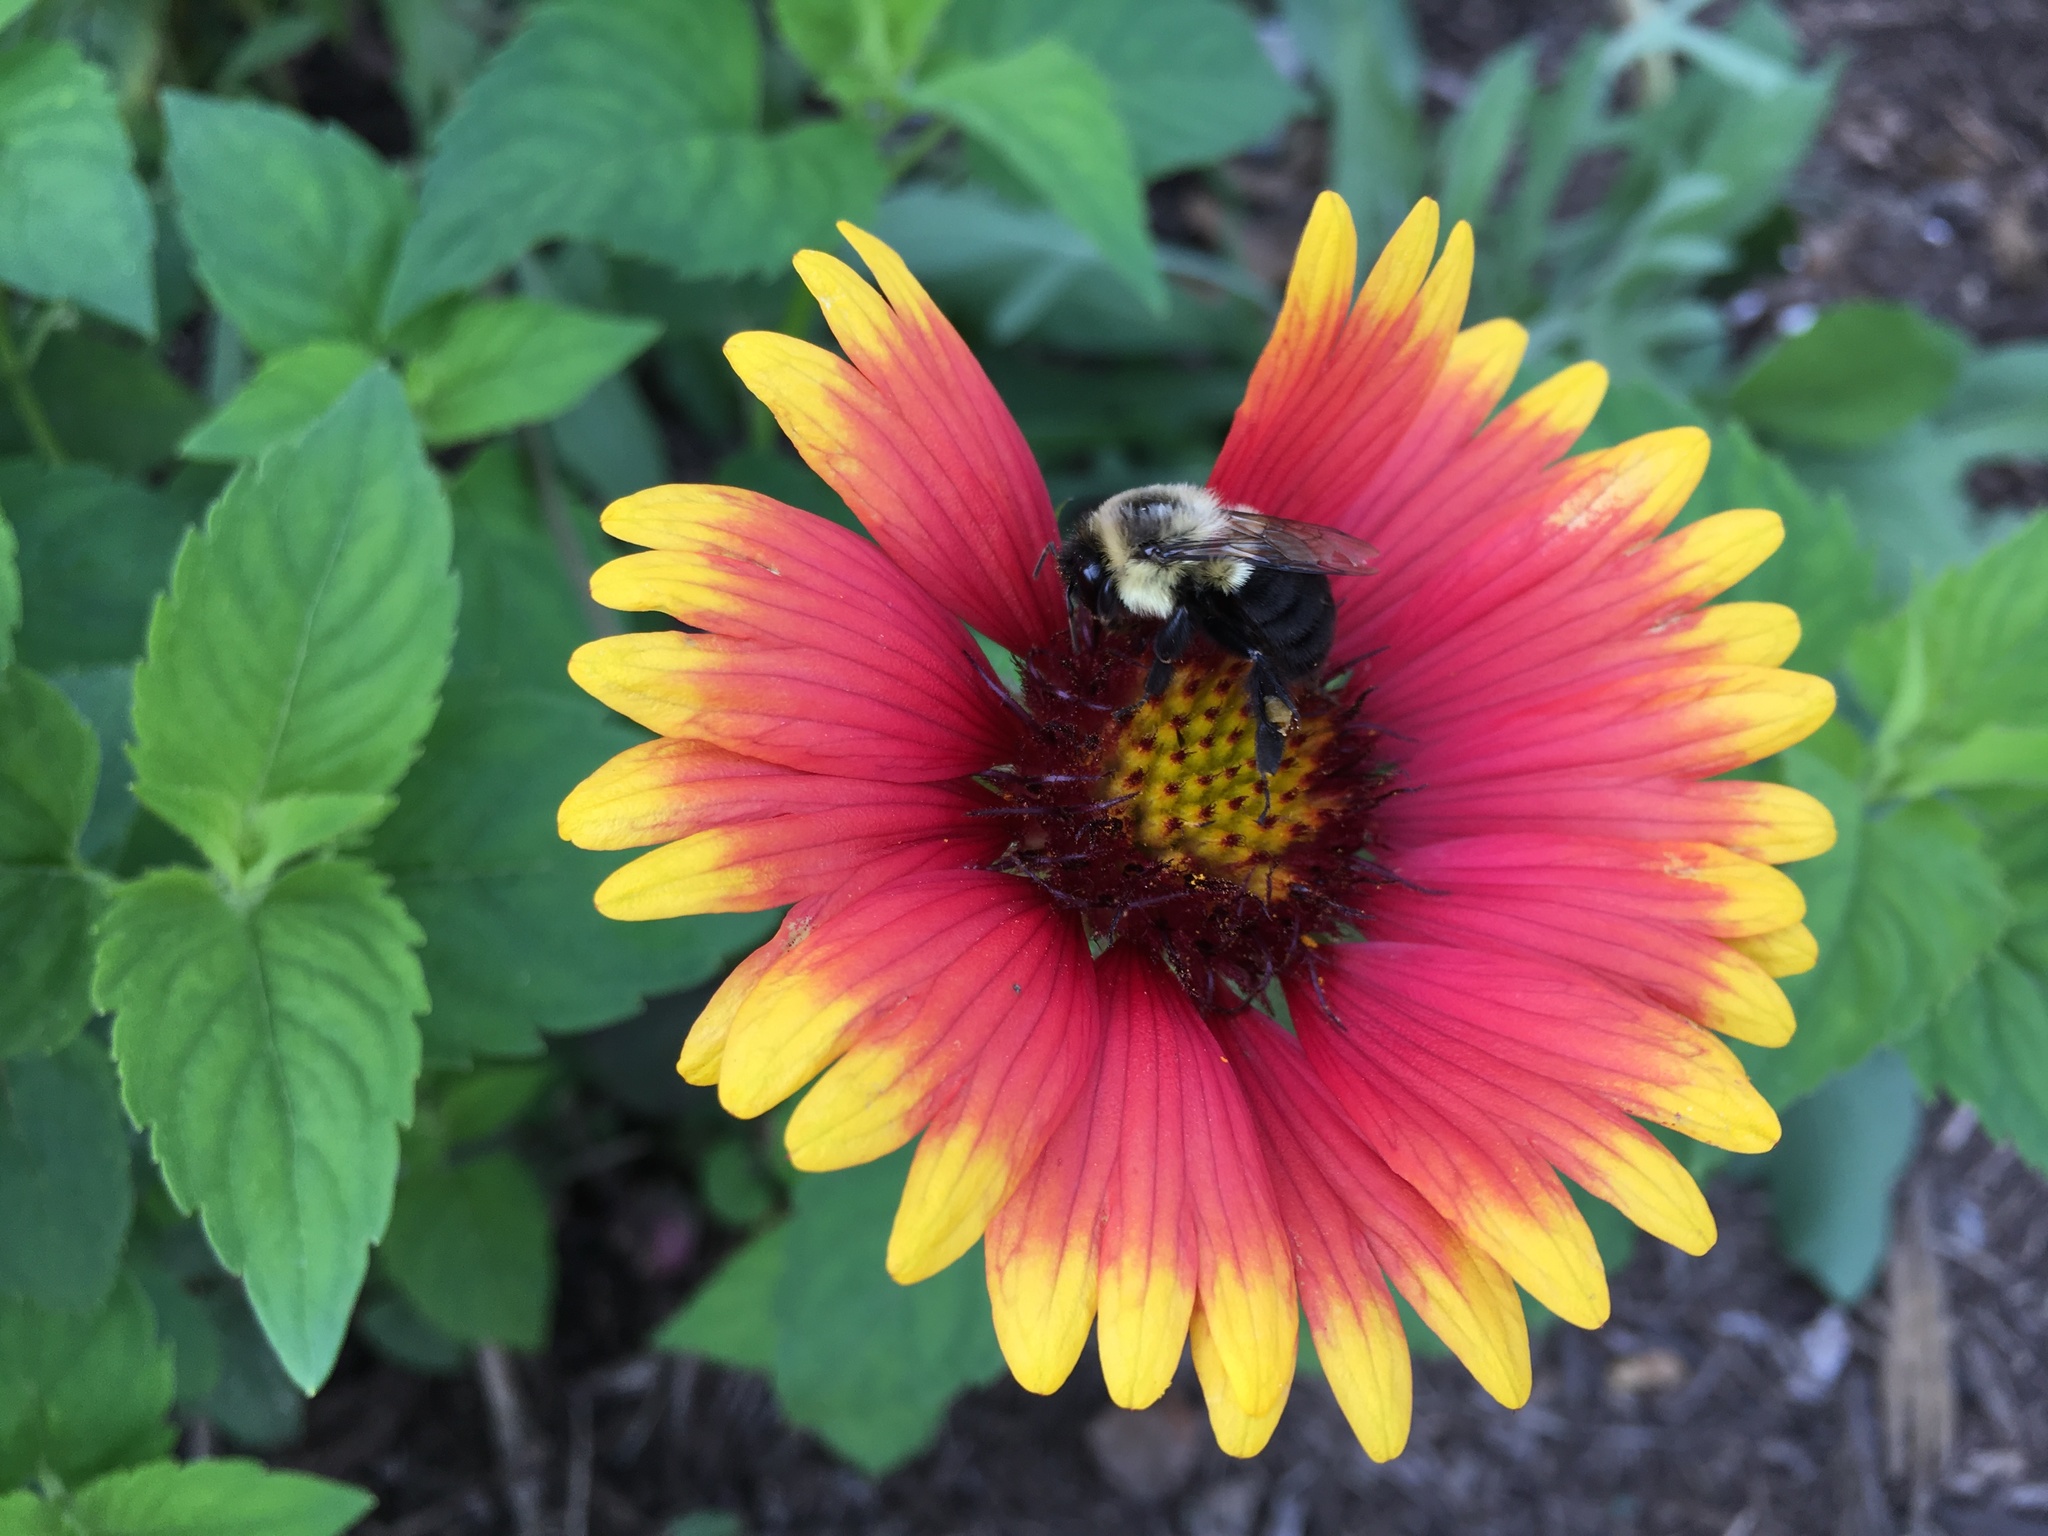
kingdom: Animalia
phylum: Arthropoda
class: Insecta
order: Hymenoptera
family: Apidae
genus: Bombus
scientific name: Bombus impatiens
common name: Common eastern bumble bee
